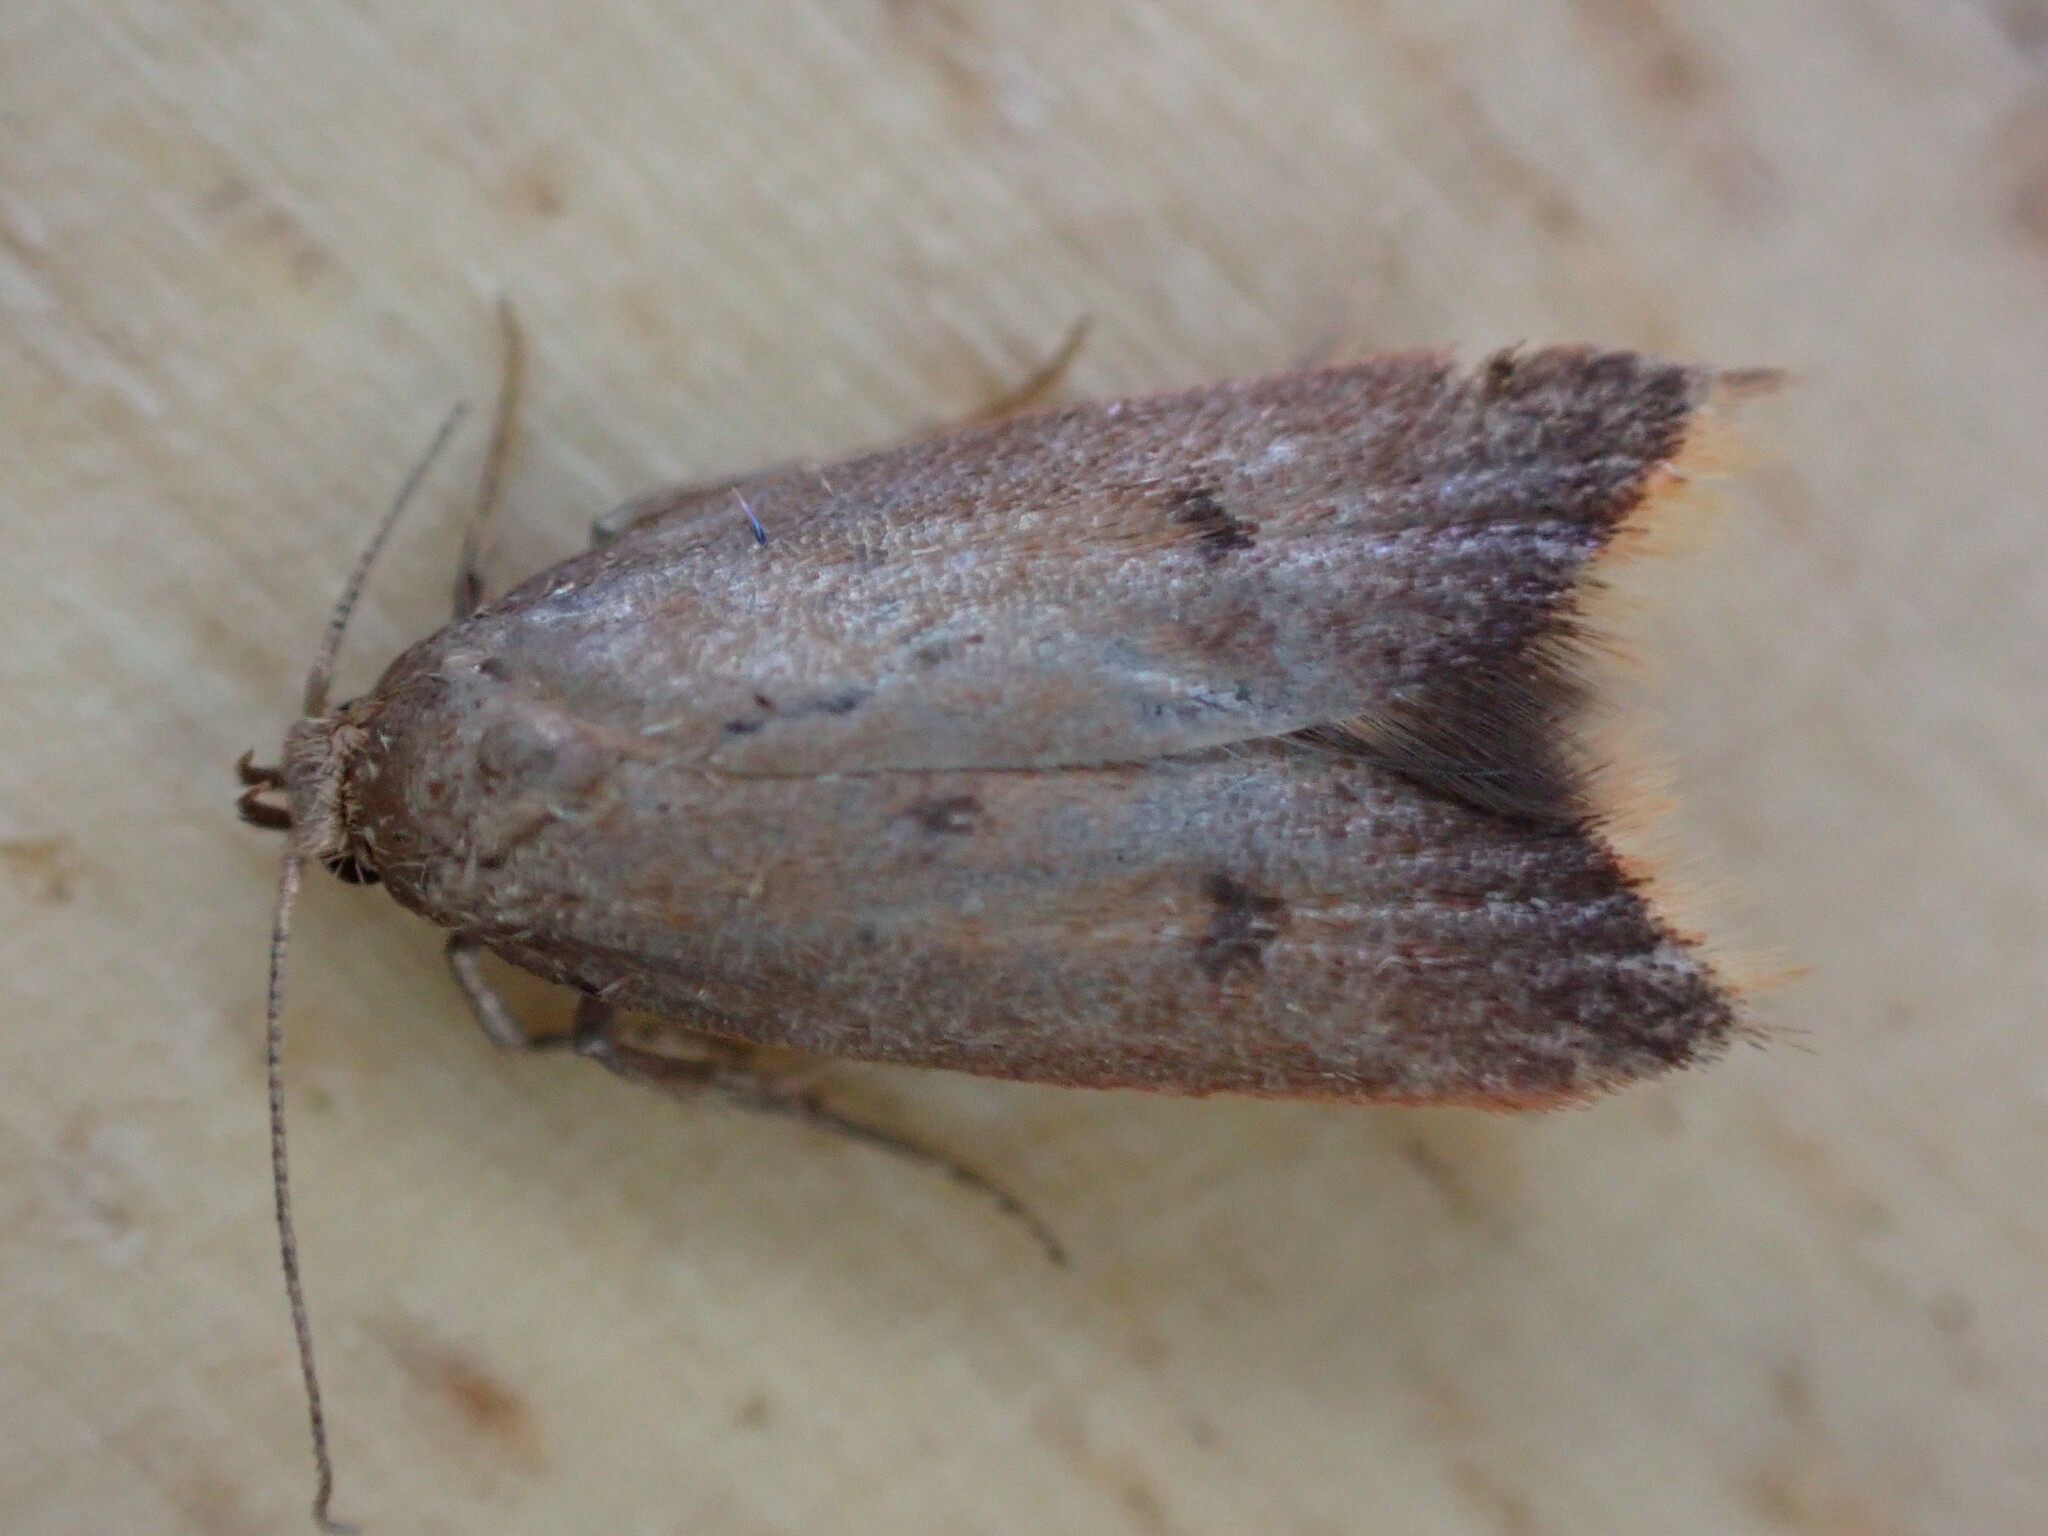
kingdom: Animalia
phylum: Arthropoda
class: Insecta
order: Lepidoptera
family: Oecophoridae
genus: Tachystola
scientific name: Tachystola acroxantha
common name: Ruddy streak
